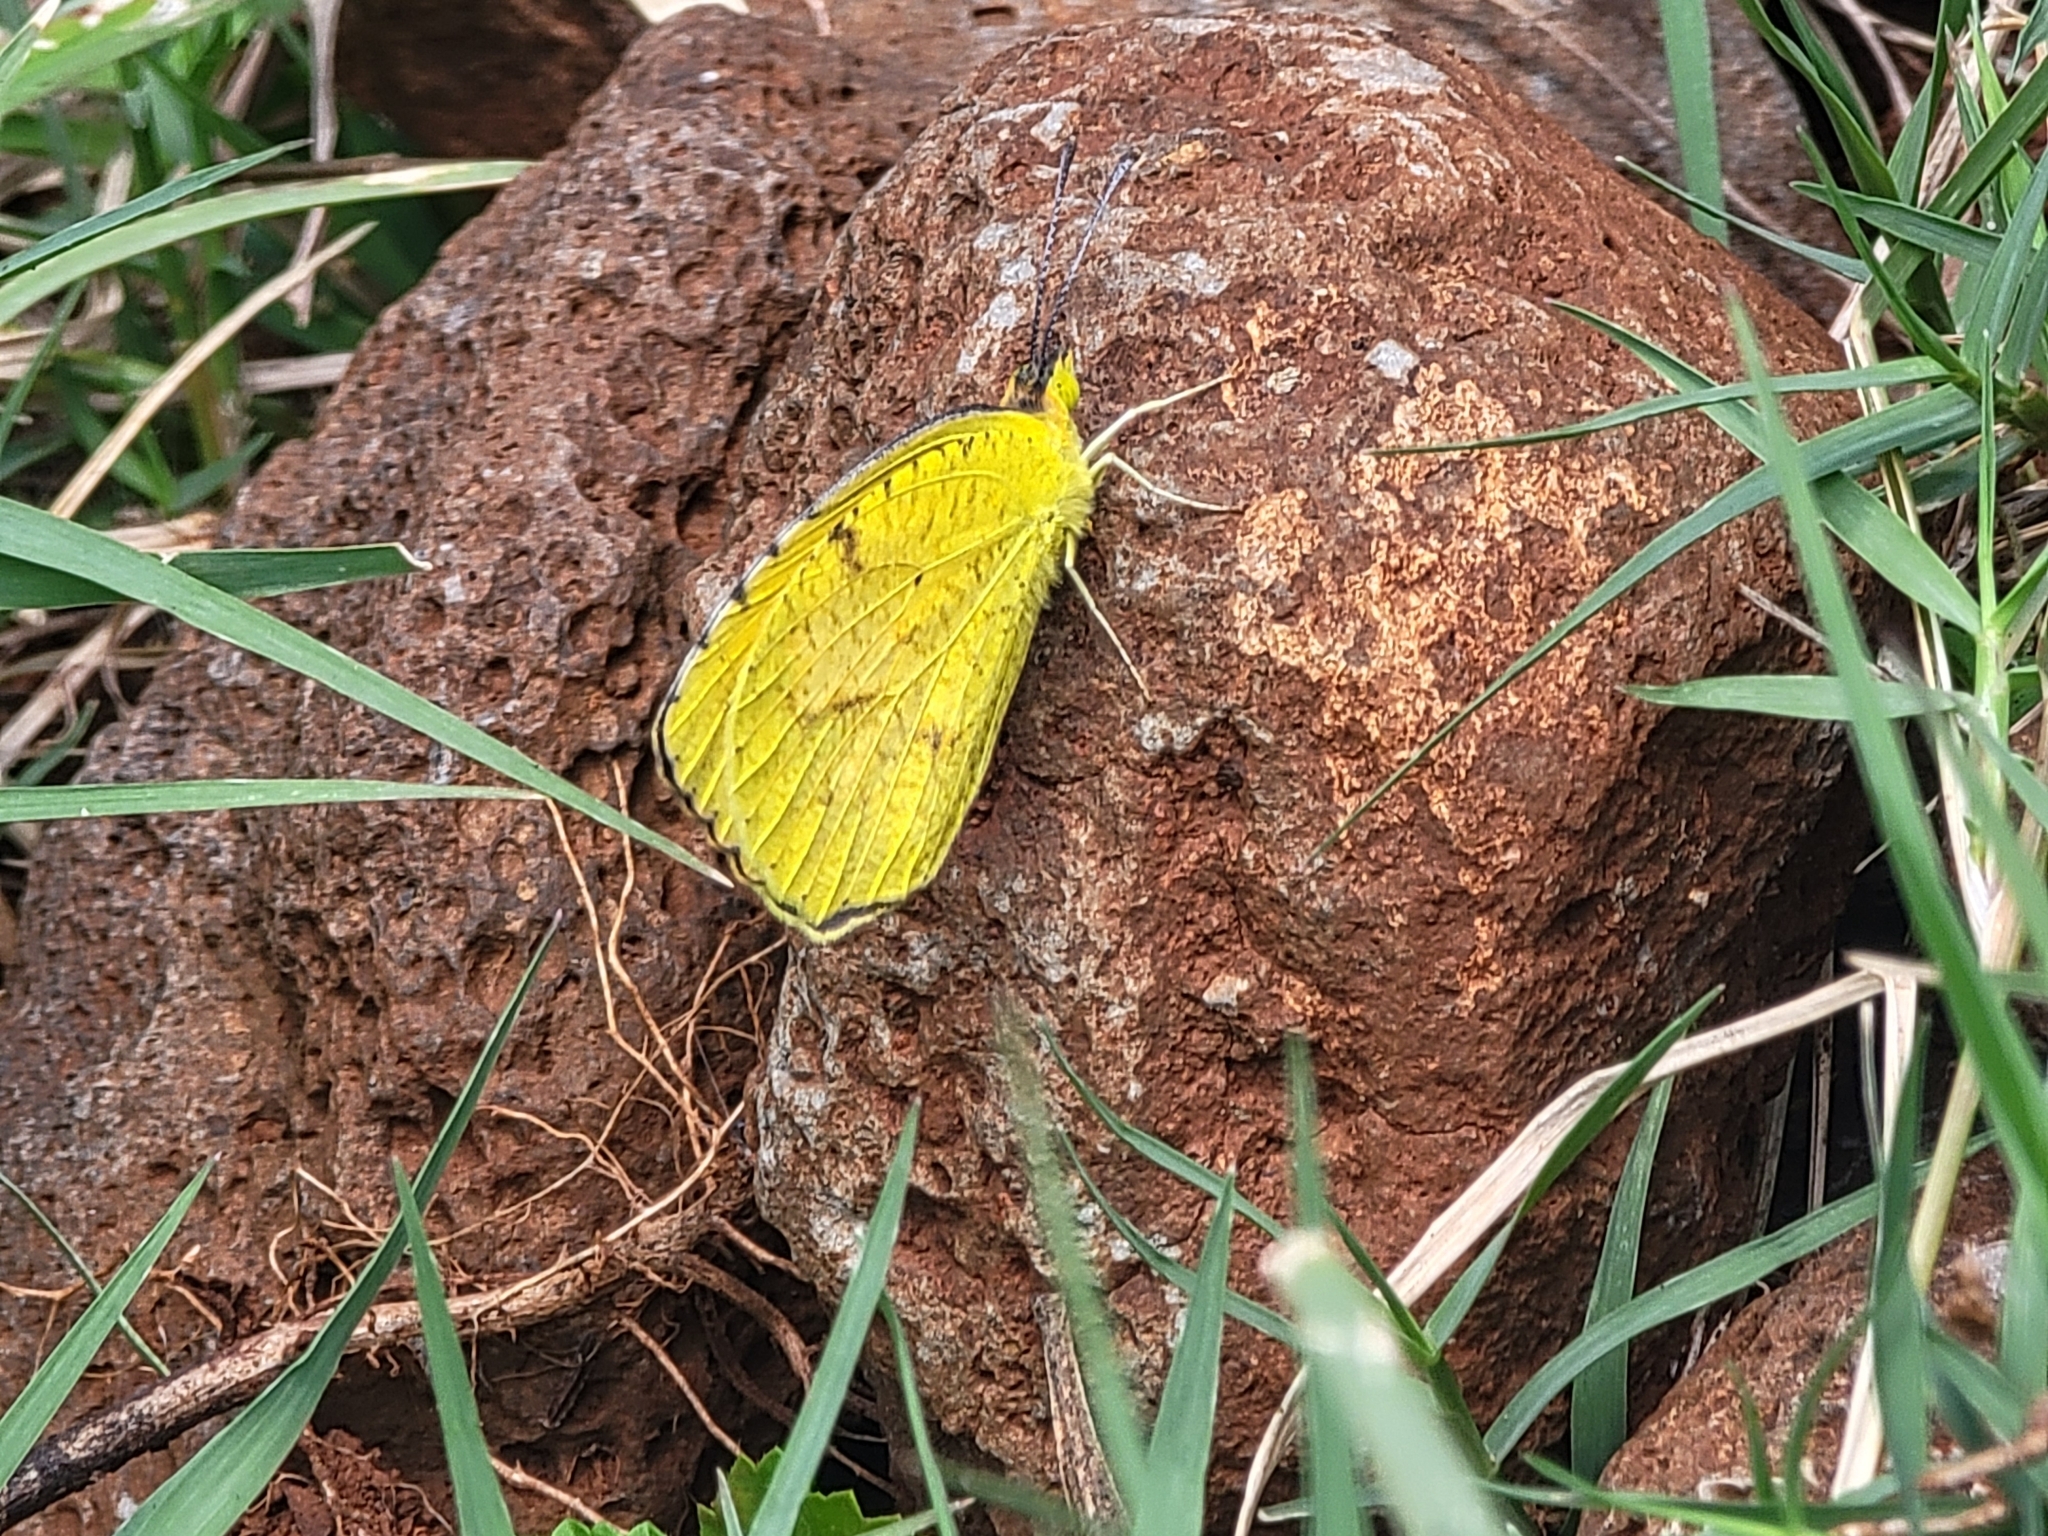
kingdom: Animalia
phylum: Arthropoda
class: Insecta
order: Lepidoptera
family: Pieridae
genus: Abaeis
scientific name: Abaeis nicippe
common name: Sleepy orange
